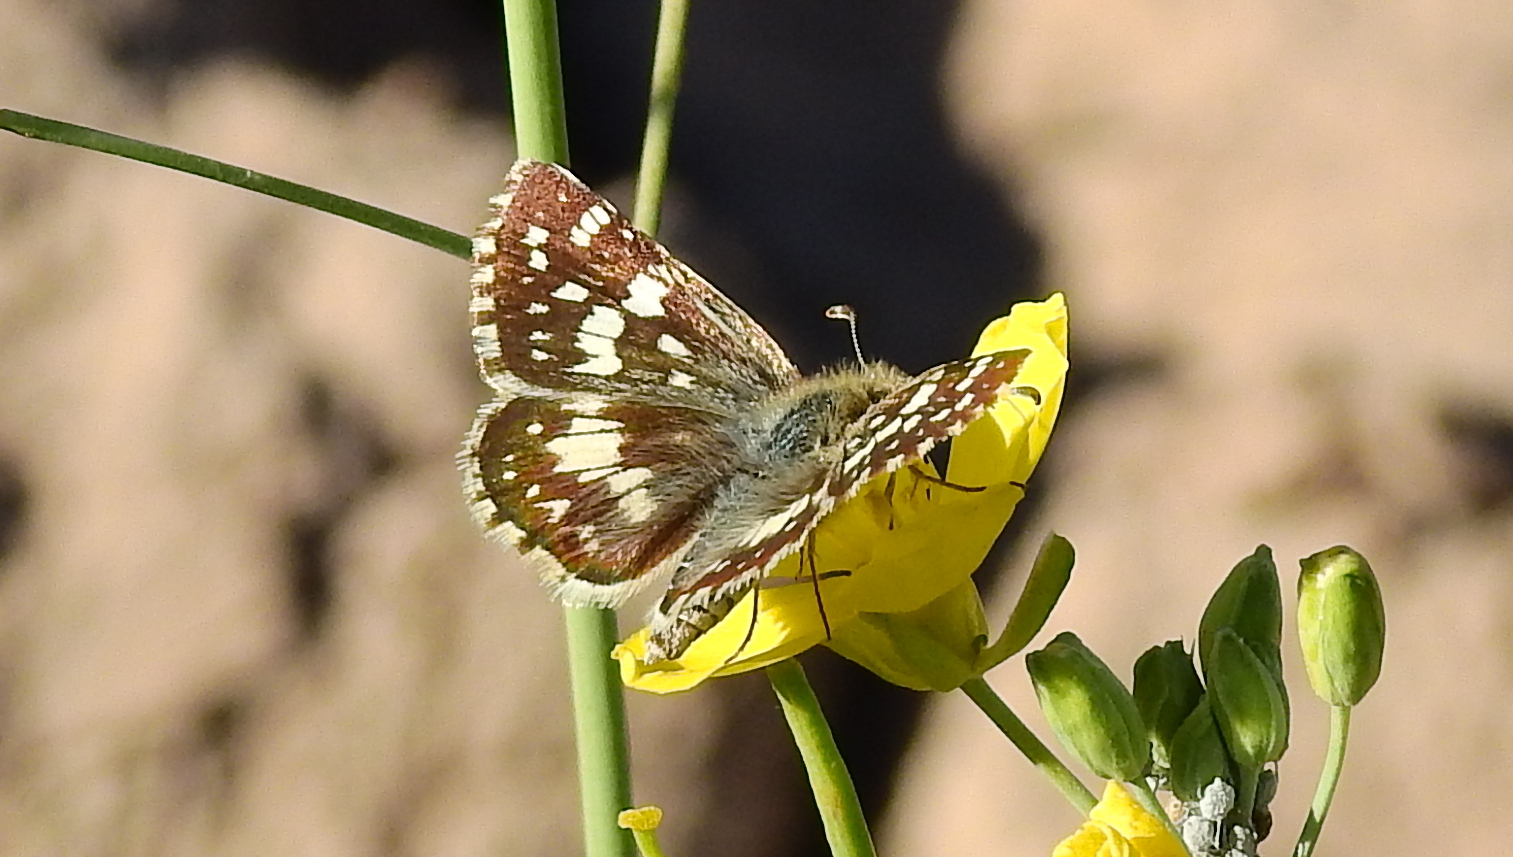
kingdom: Animalia
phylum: Arthropoda
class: Insecta
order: Lepidoptera
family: Hesperiidae
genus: Burnsius
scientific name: Burnsius orcynoides
